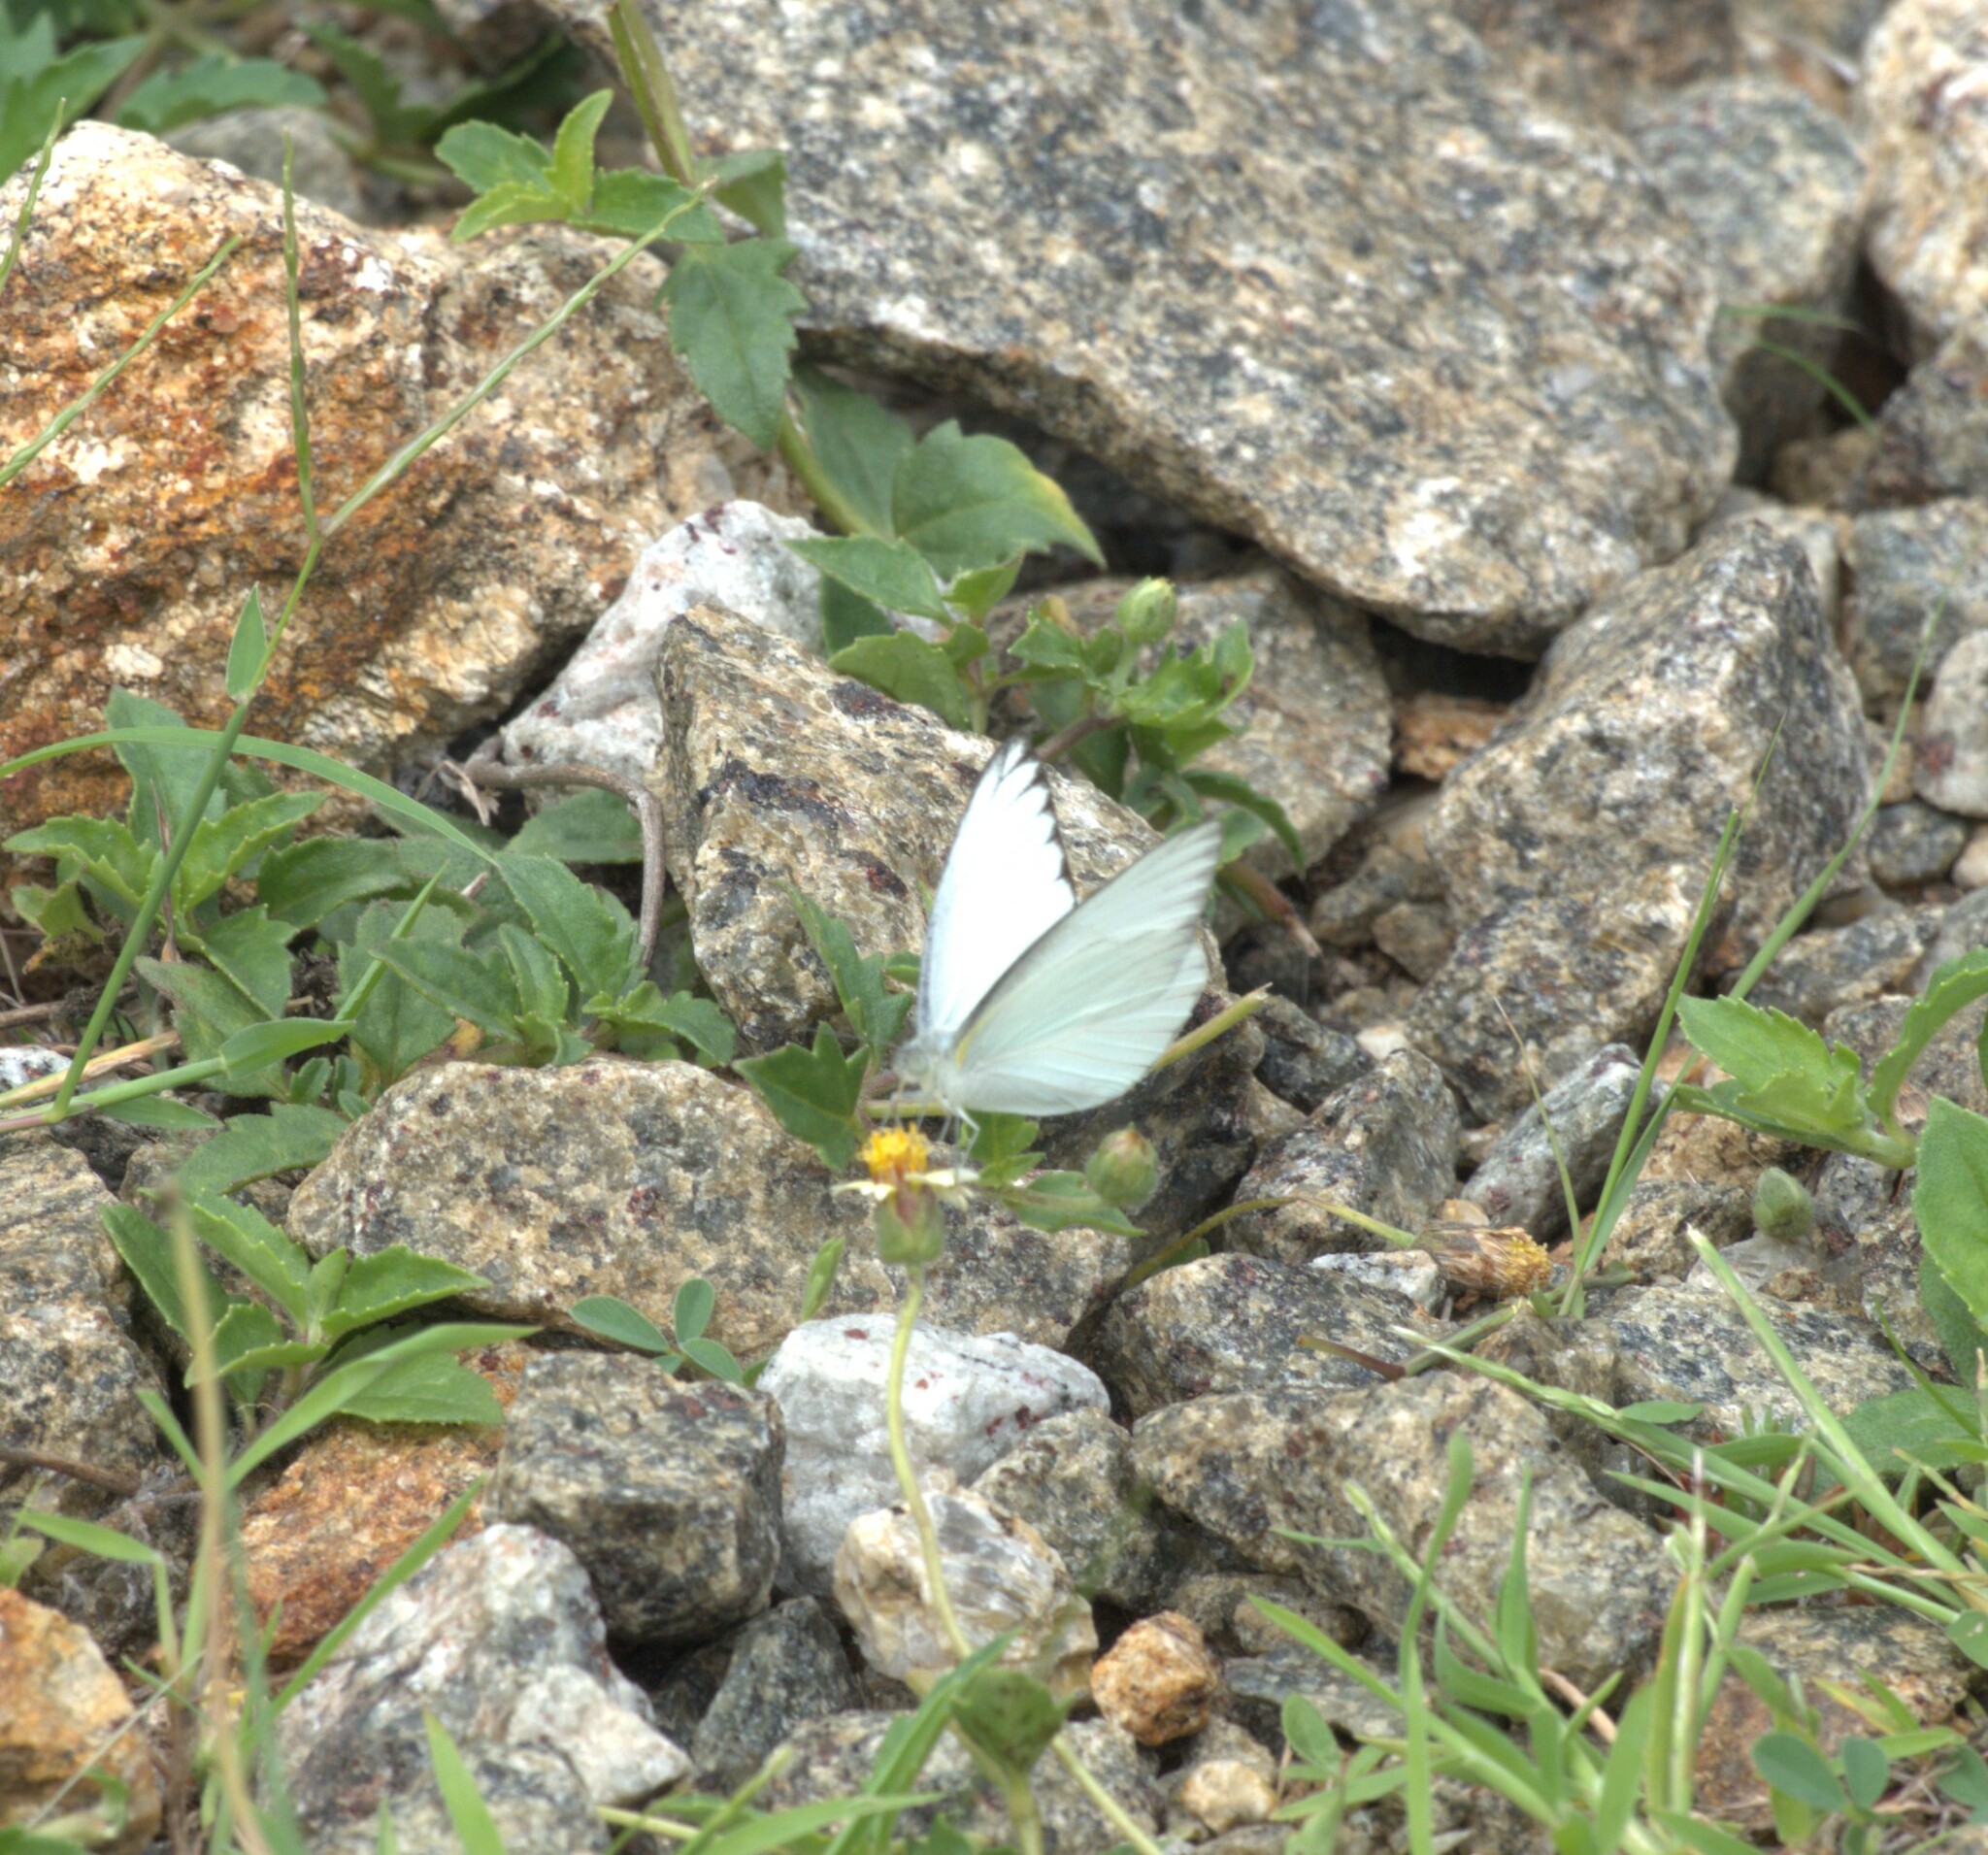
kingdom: Animalia
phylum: Arthropoda
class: Insecta
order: Lepidoptera
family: Pieridae
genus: Appias
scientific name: Appias libythea
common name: Striped albatross
